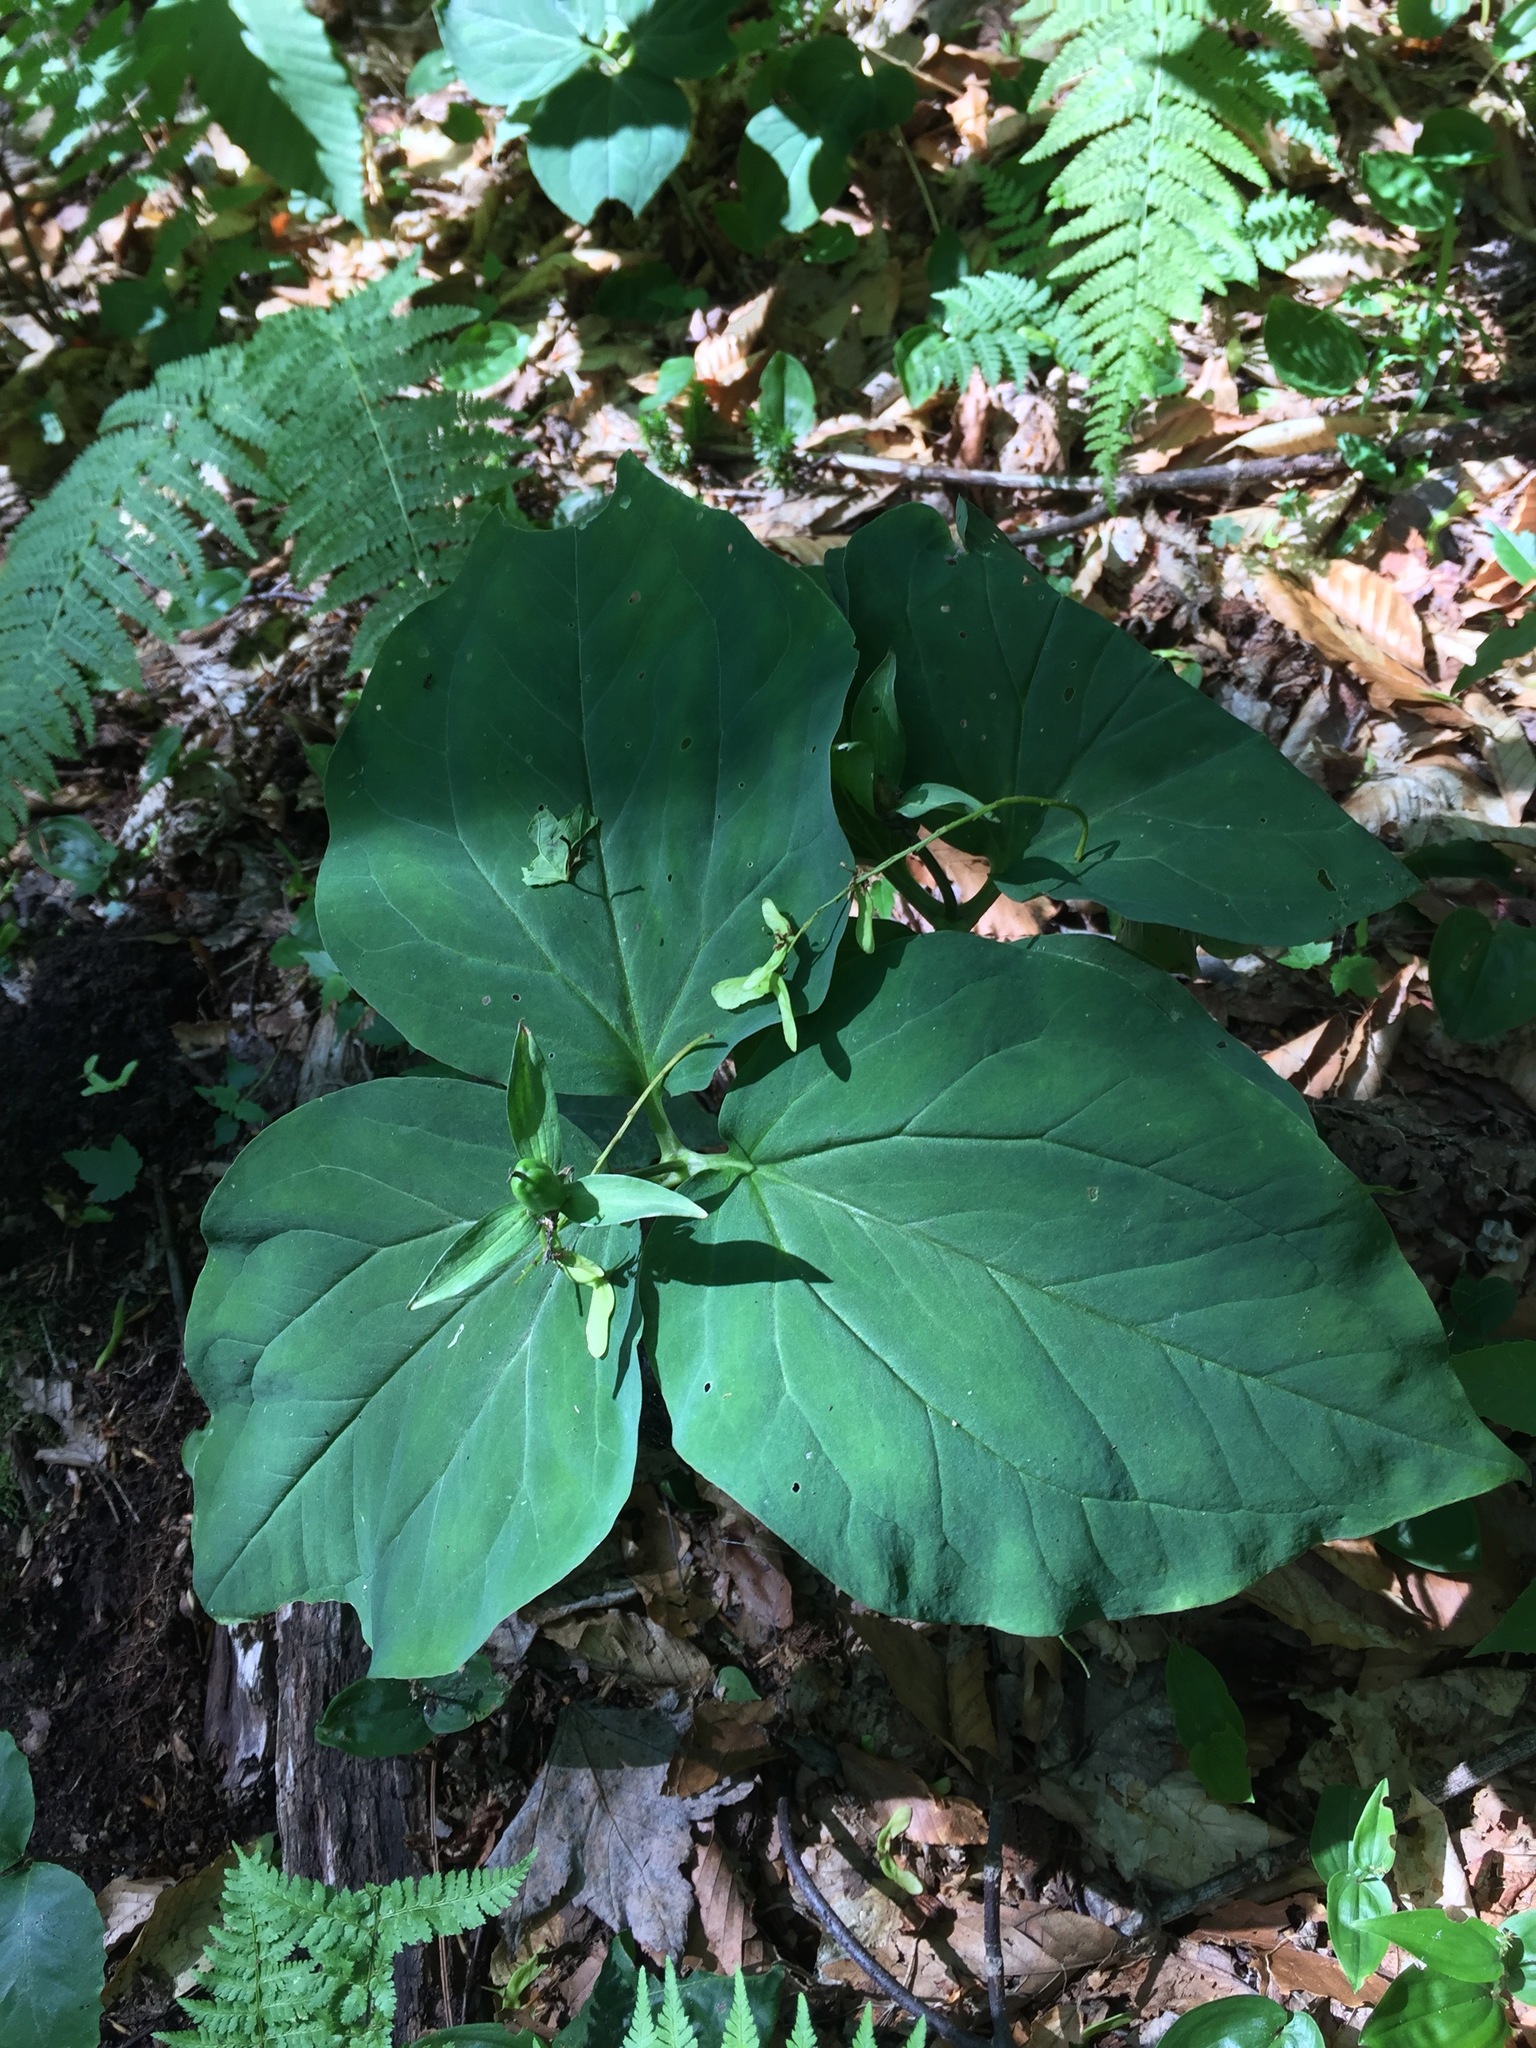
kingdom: Plantae
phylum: Tracheophyta
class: Liliopsida
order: Liliales
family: Melanthiaceae
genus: Trillium
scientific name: Trillium undulatum
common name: Paint trillium
